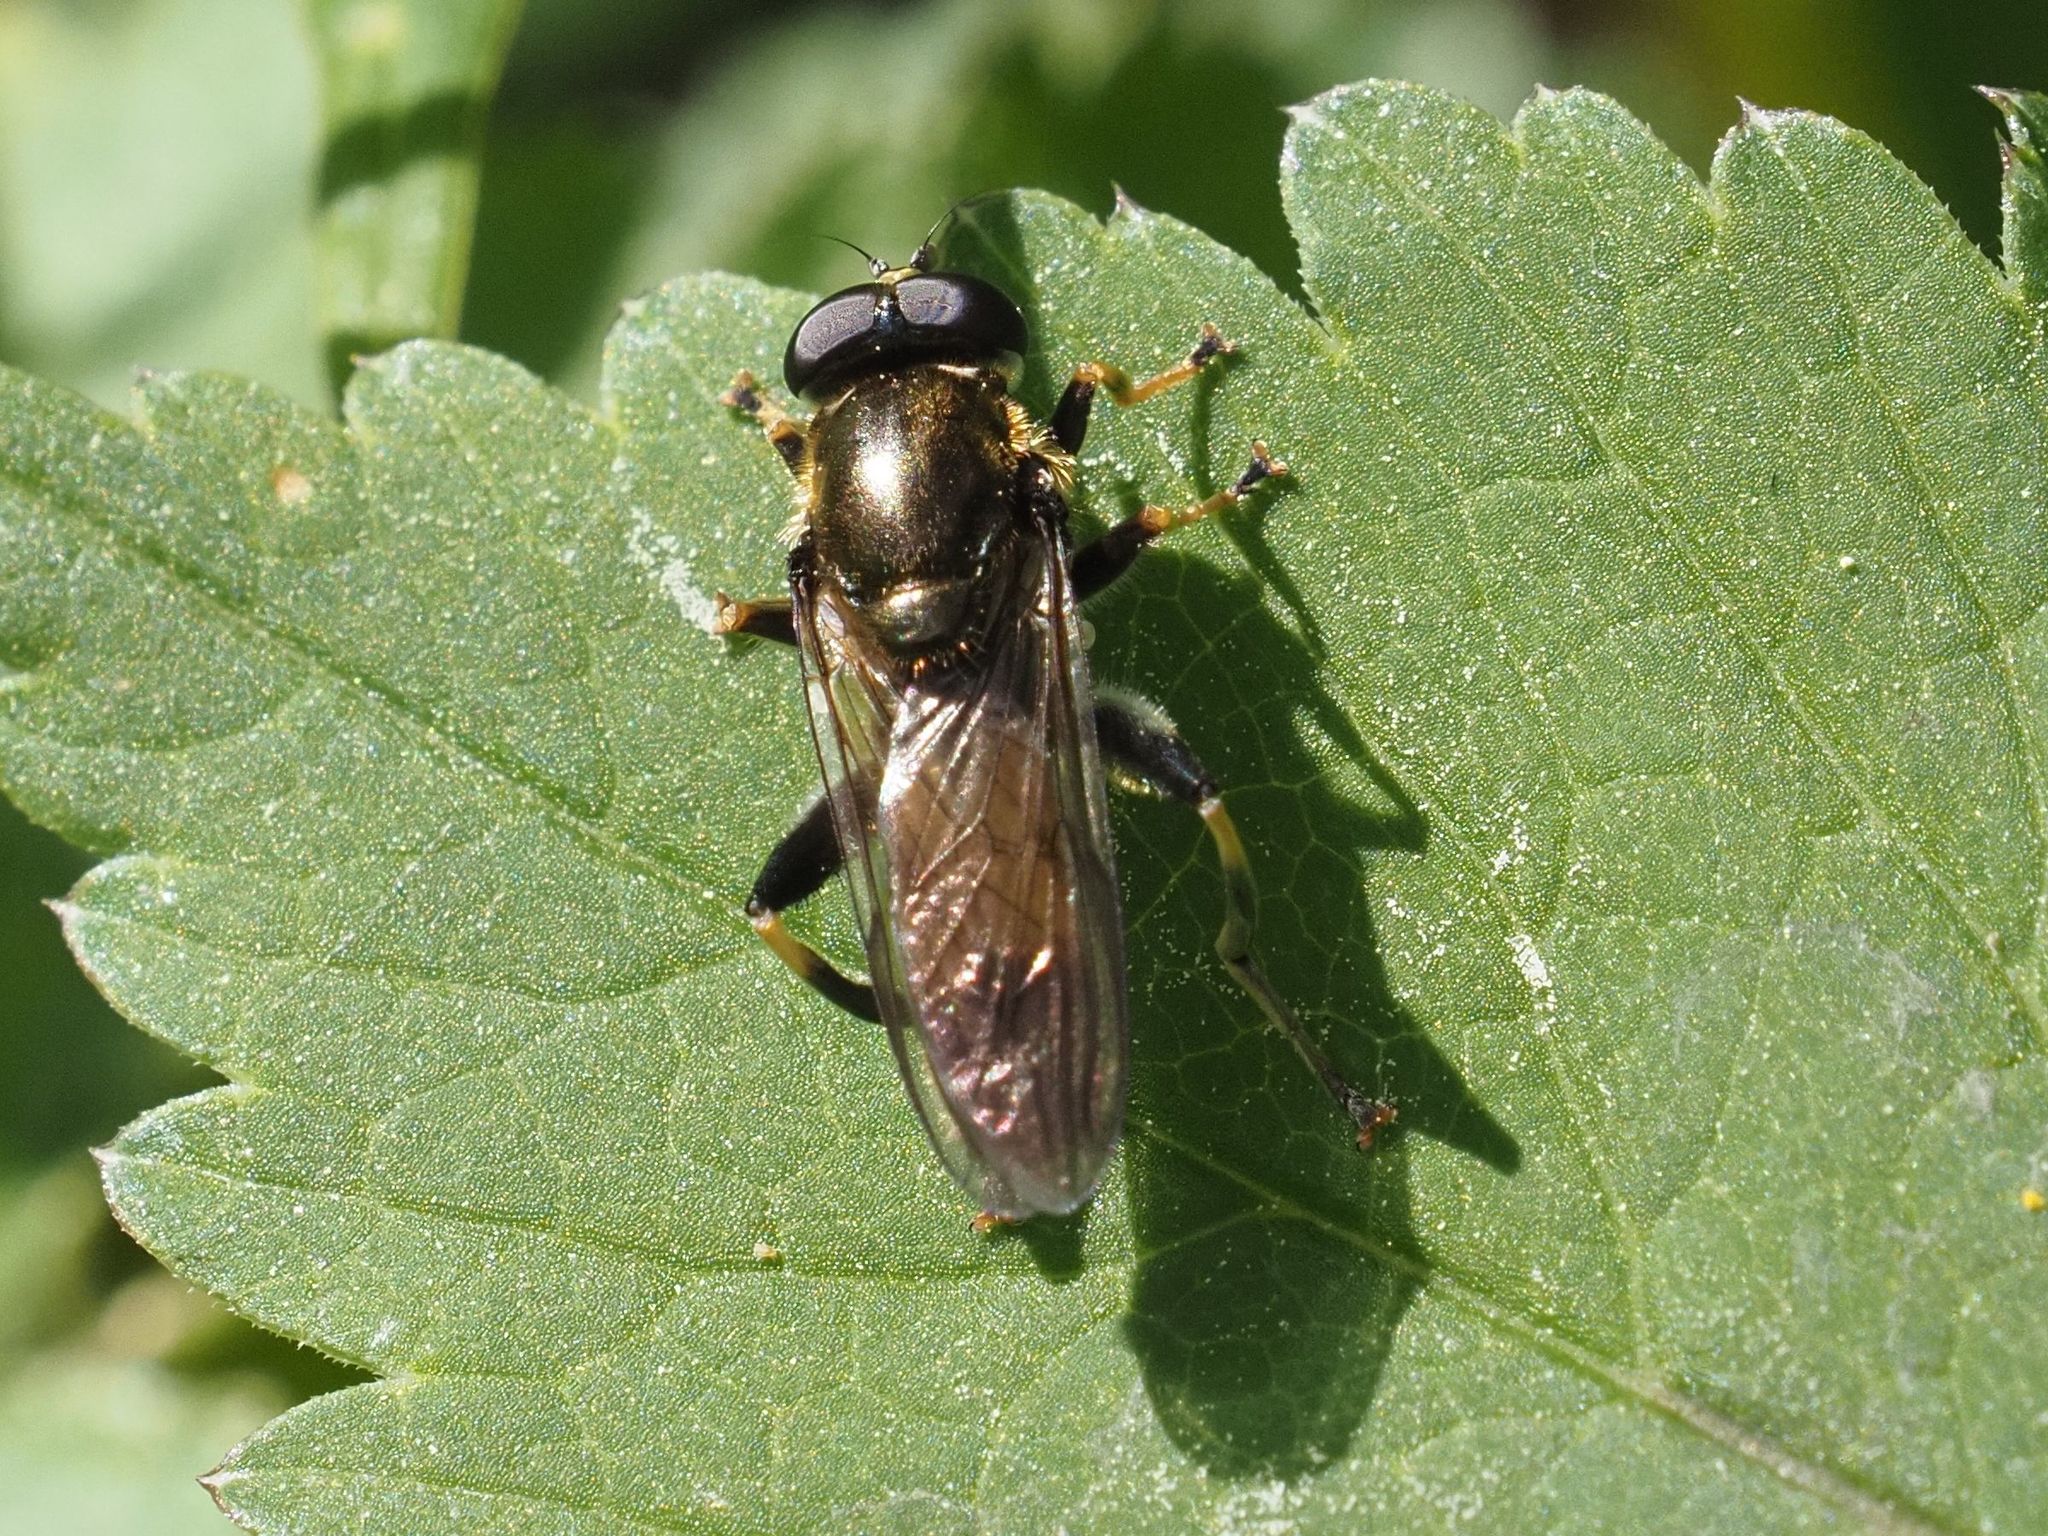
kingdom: Animalia
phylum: Arthropoda
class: Insecta
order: Diptera
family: Syrphidae
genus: Xylota
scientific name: Xylota segnis
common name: Brown-toed forest fly
